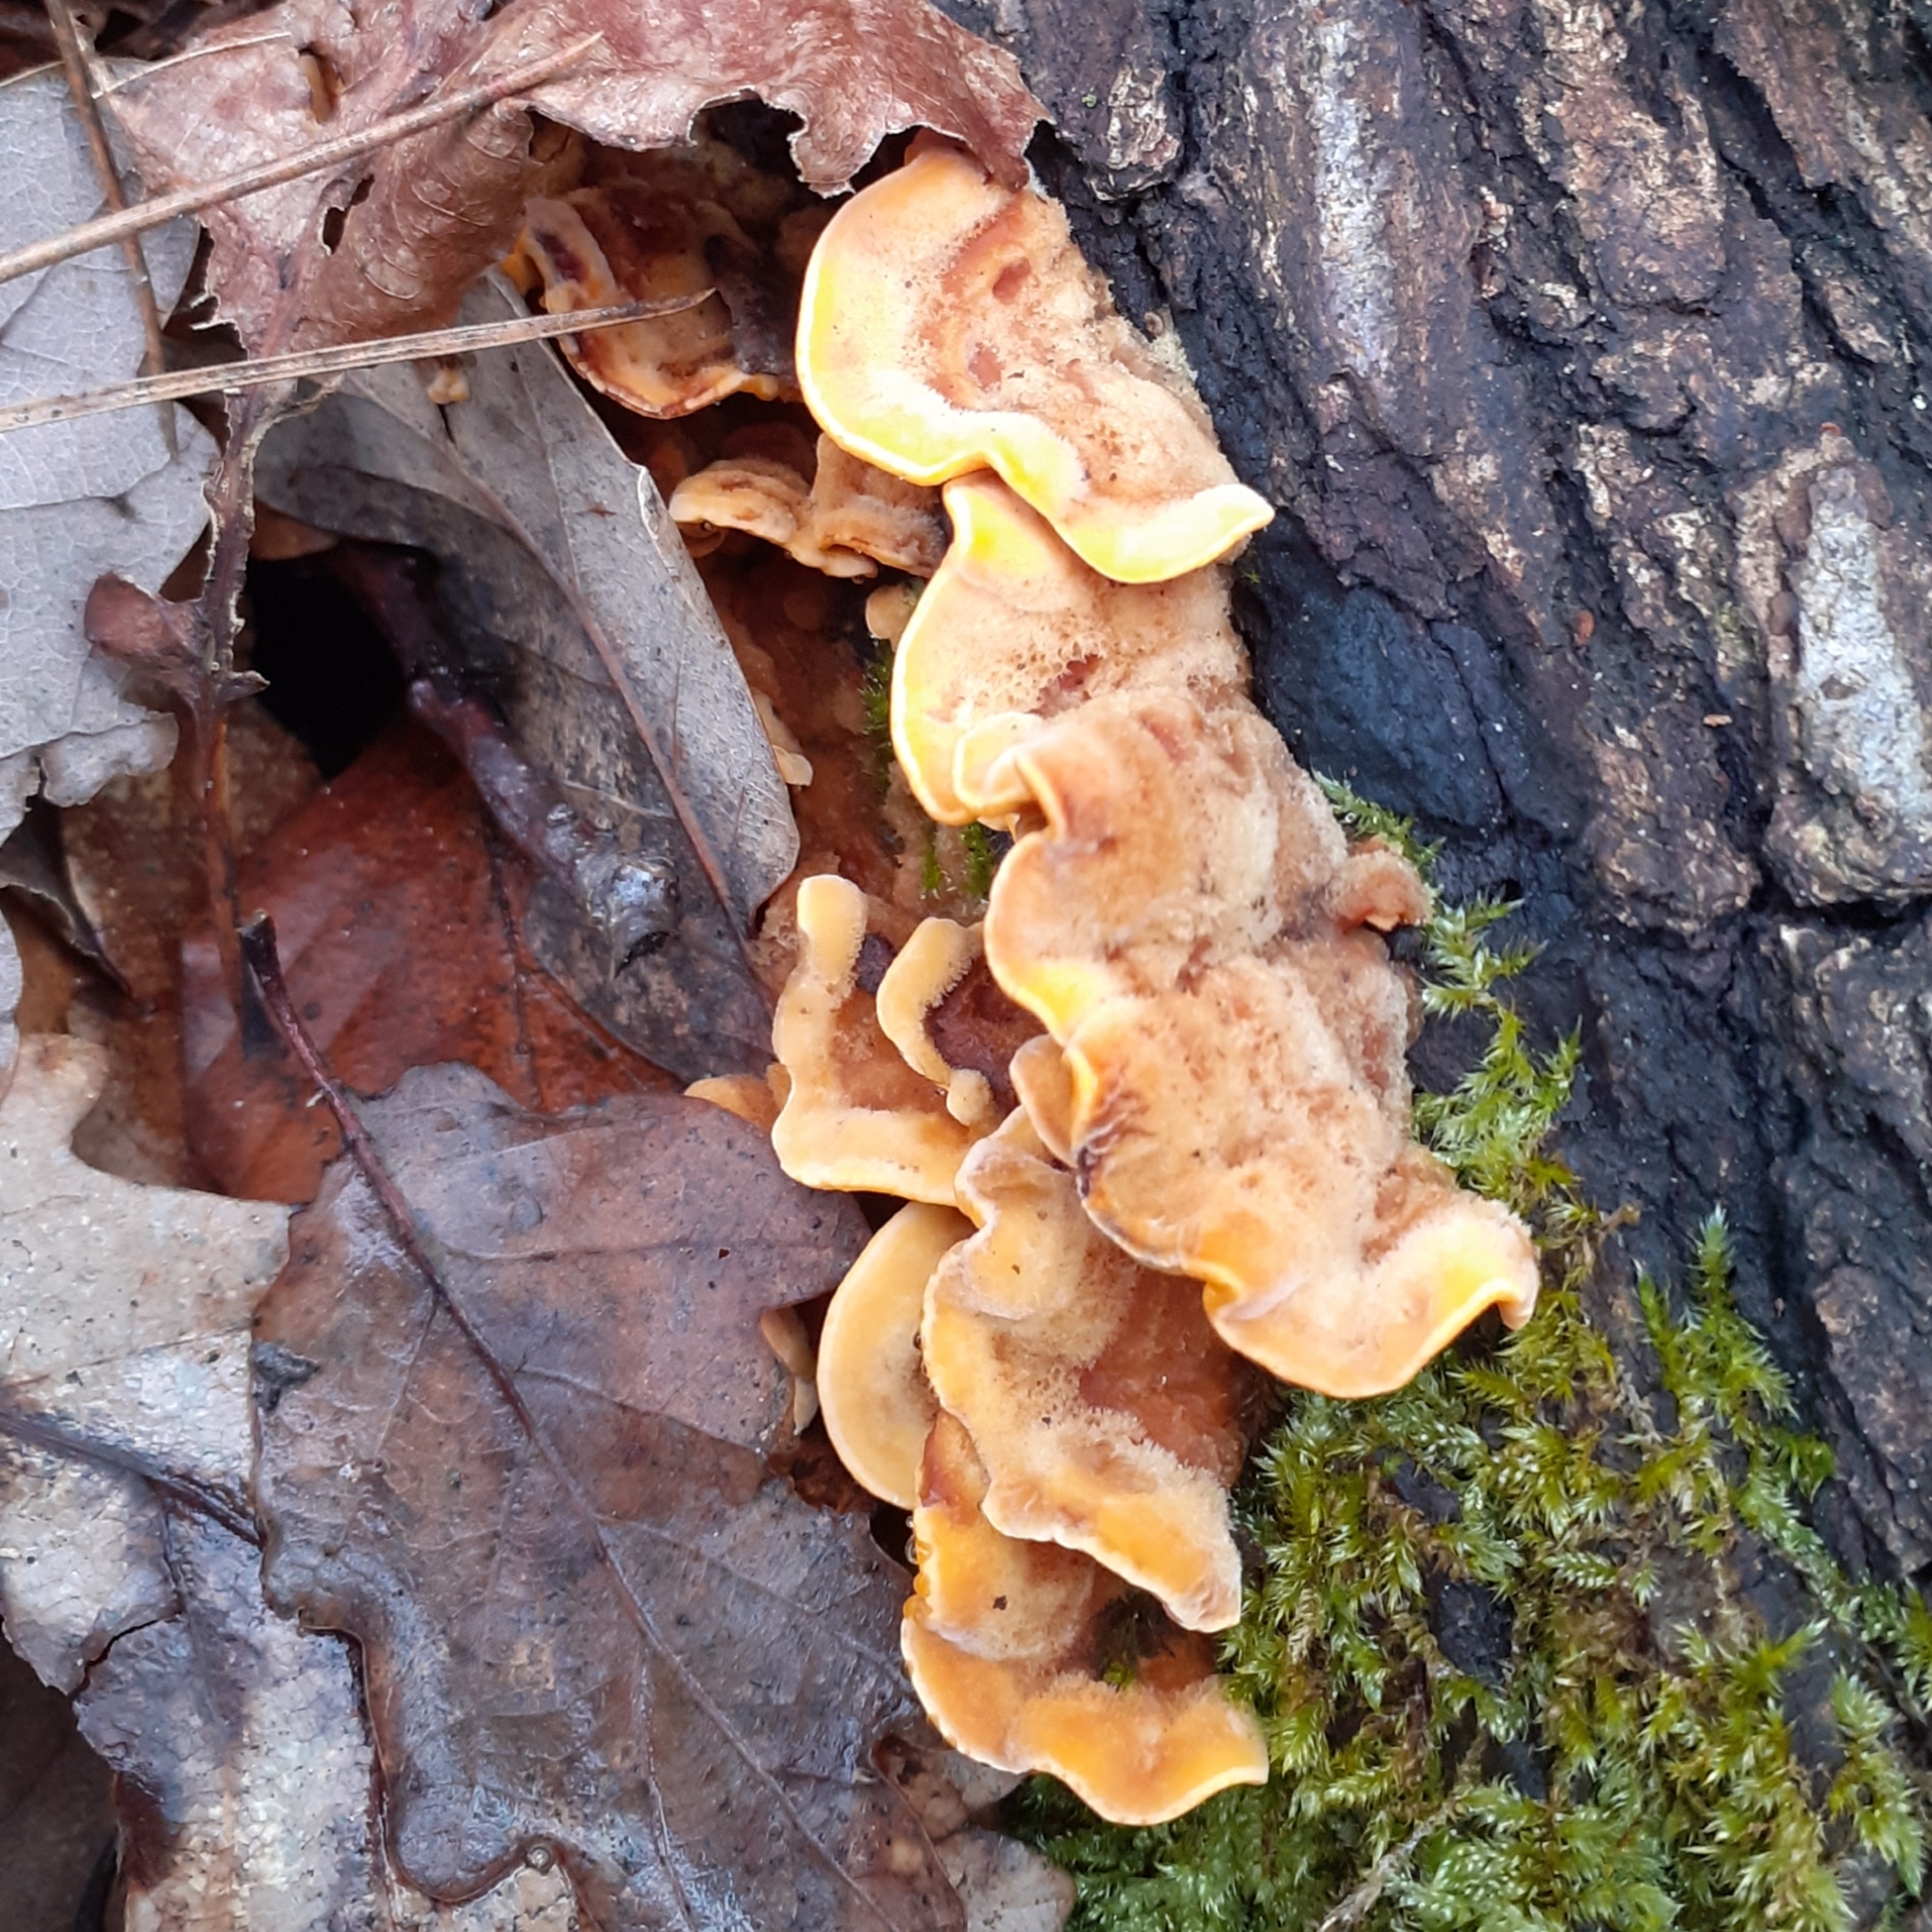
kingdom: Fungi
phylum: Basidiomycota
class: Agaricomycetes
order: Russulales
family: Stereaceae
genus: Stereum
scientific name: Stereum hirsutum
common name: Hairy curtain crust
